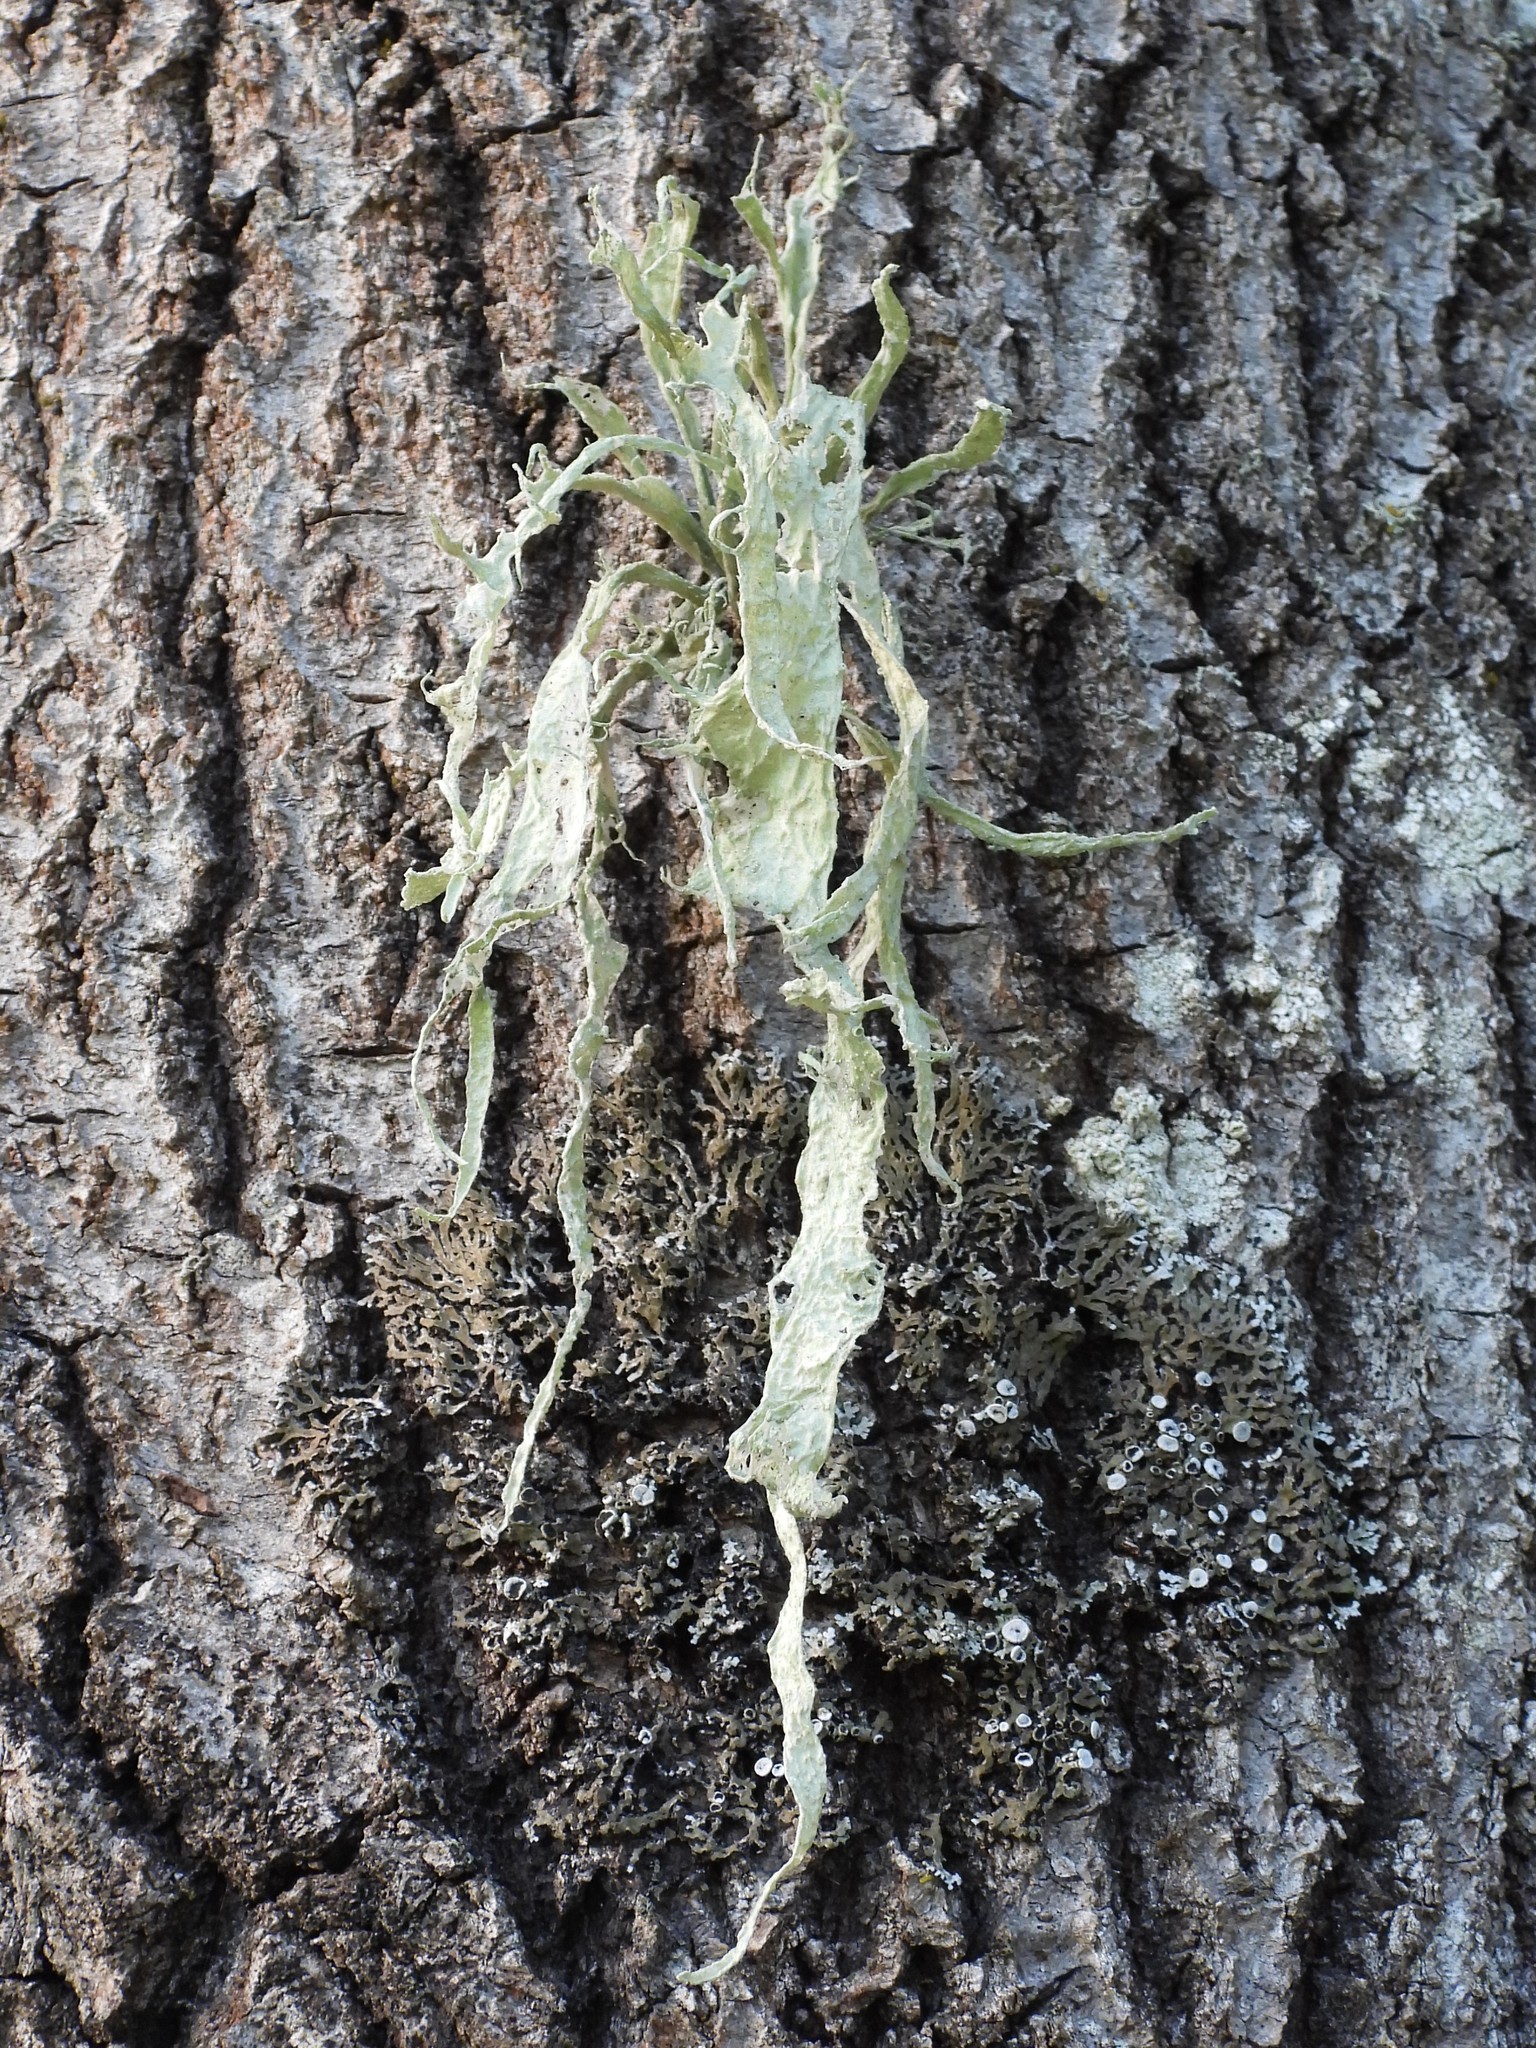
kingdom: Fungi
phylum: Ascomycota
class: Lecanoromycetes
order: Lecanorales
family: Ramalinaceae
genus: Ramalina
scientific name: Ramalina fraxinea
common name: Cartilage lichen
